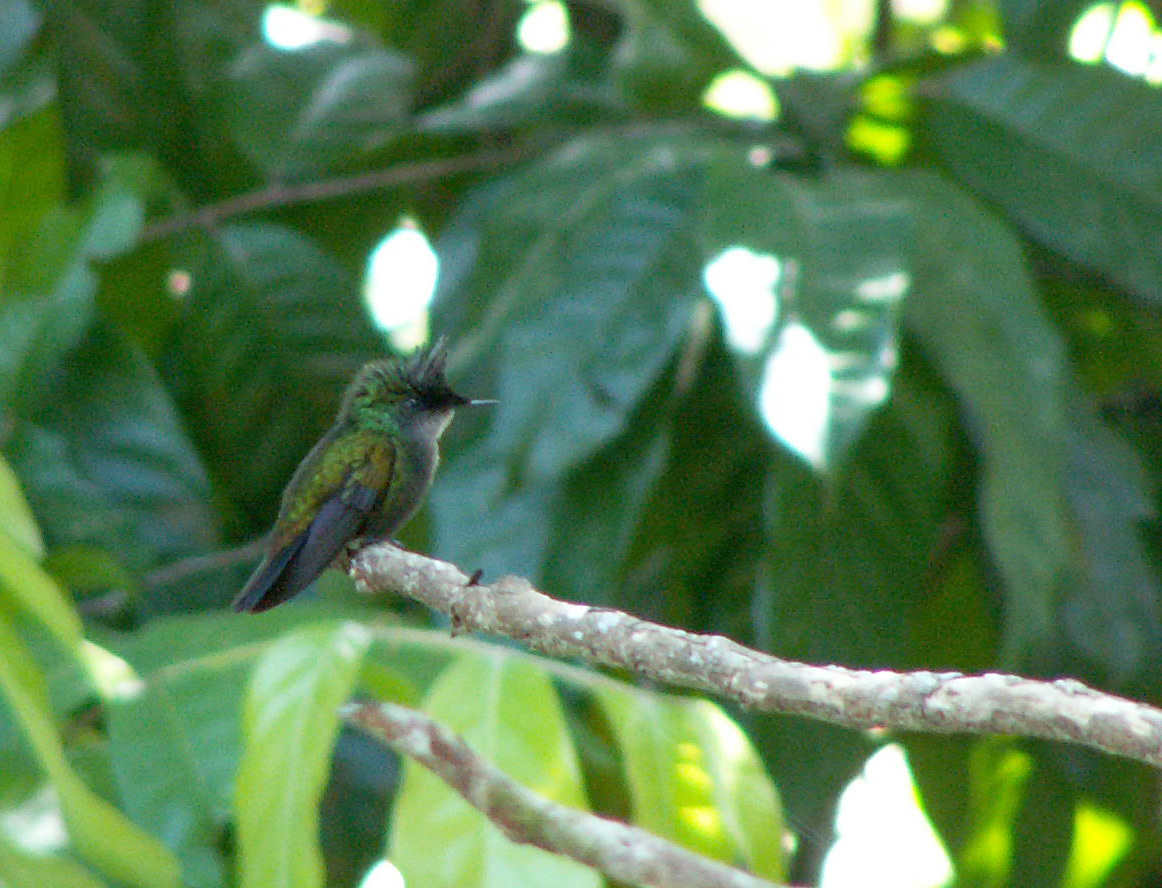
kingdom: Animalia
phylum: Chordata
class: Aves
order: Apodiformes
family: Trochilidae
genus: Orthorhyncus
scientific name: Orthorhyncus cristatus
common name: Antillean crested hummingbird
